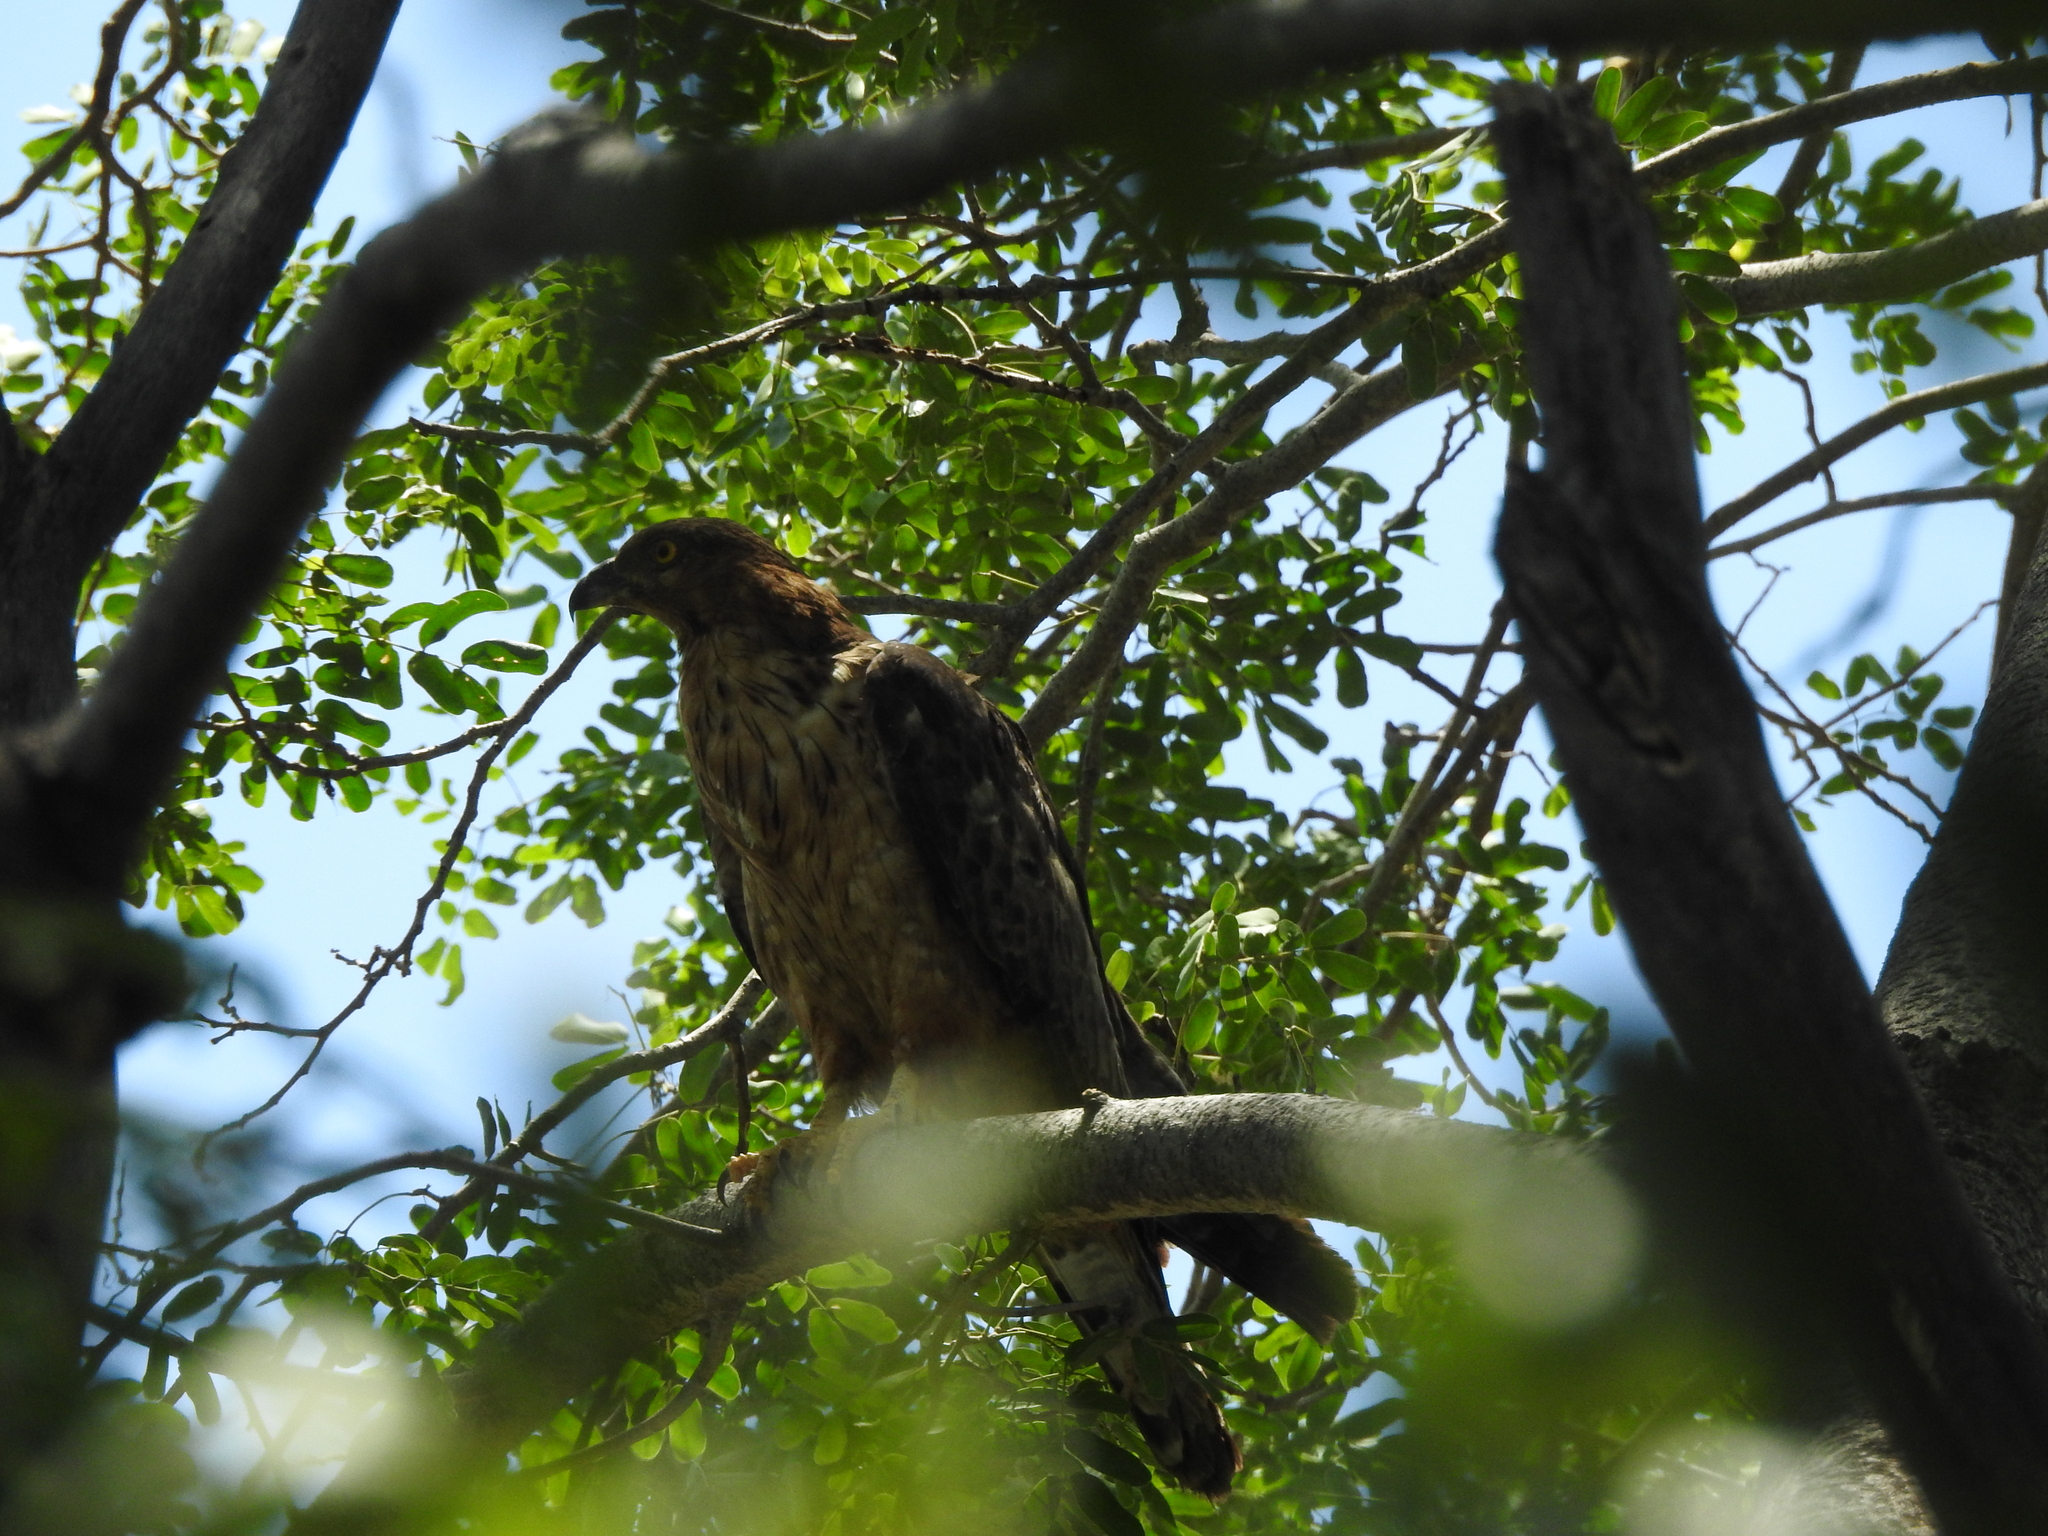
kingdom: Animalia
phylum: Chordata
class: Aves
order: Accipitriformes
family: Accipitridae
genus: Pernis
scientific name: Pernis ptilorhynchus
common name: Crested honey buzzard
